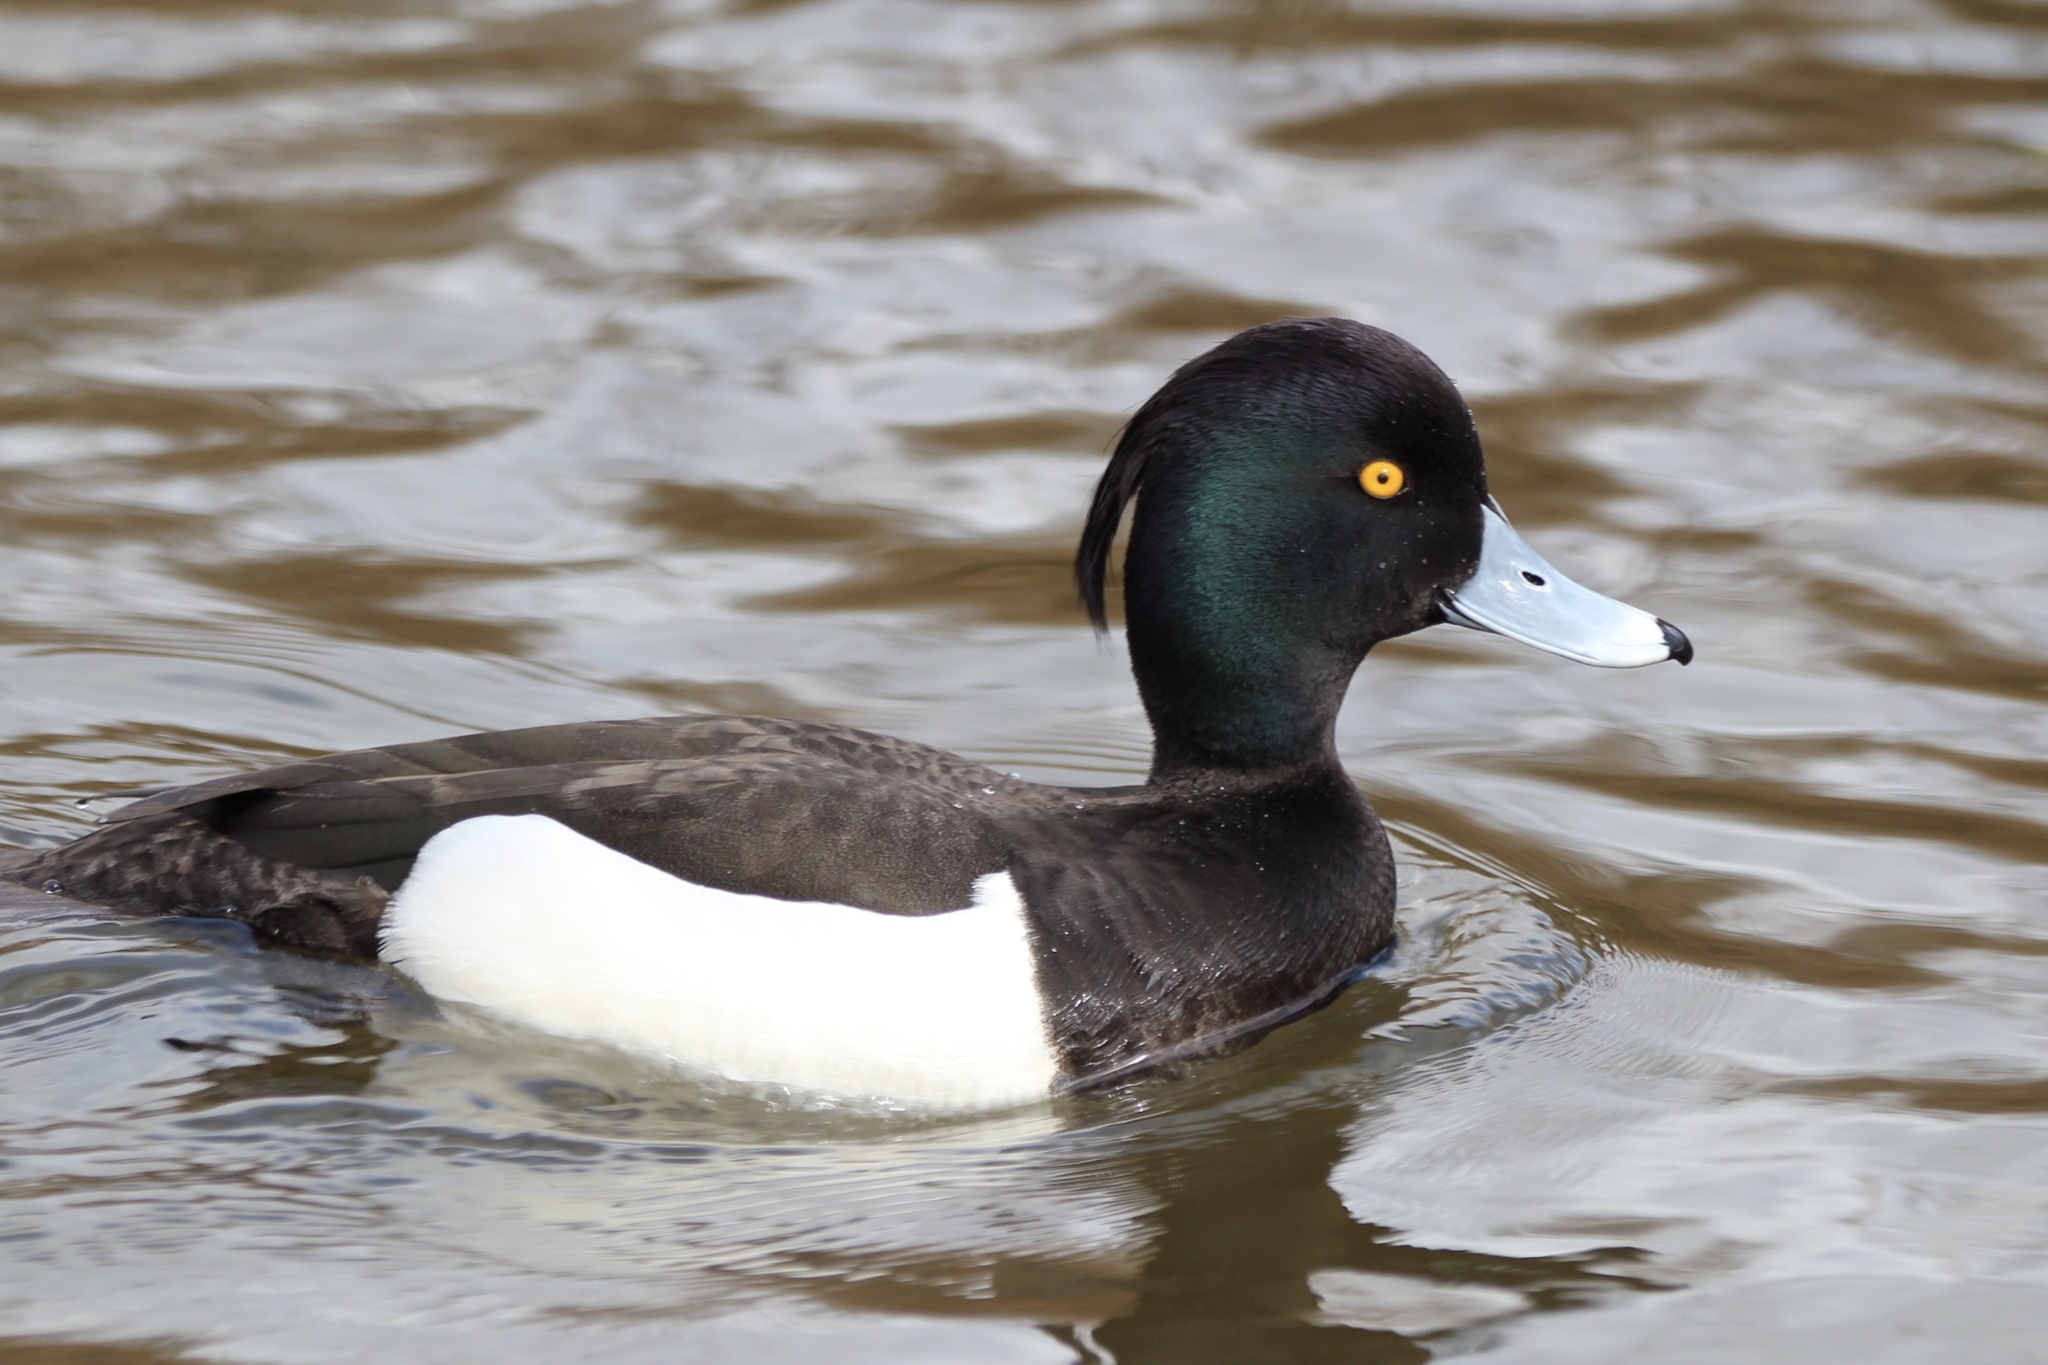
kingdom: Animalia
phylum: Chordata
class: Aves
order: Anseriformes
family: Anatidae
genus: Aythya
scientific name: Aythya fuligula
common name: Tufted duck
